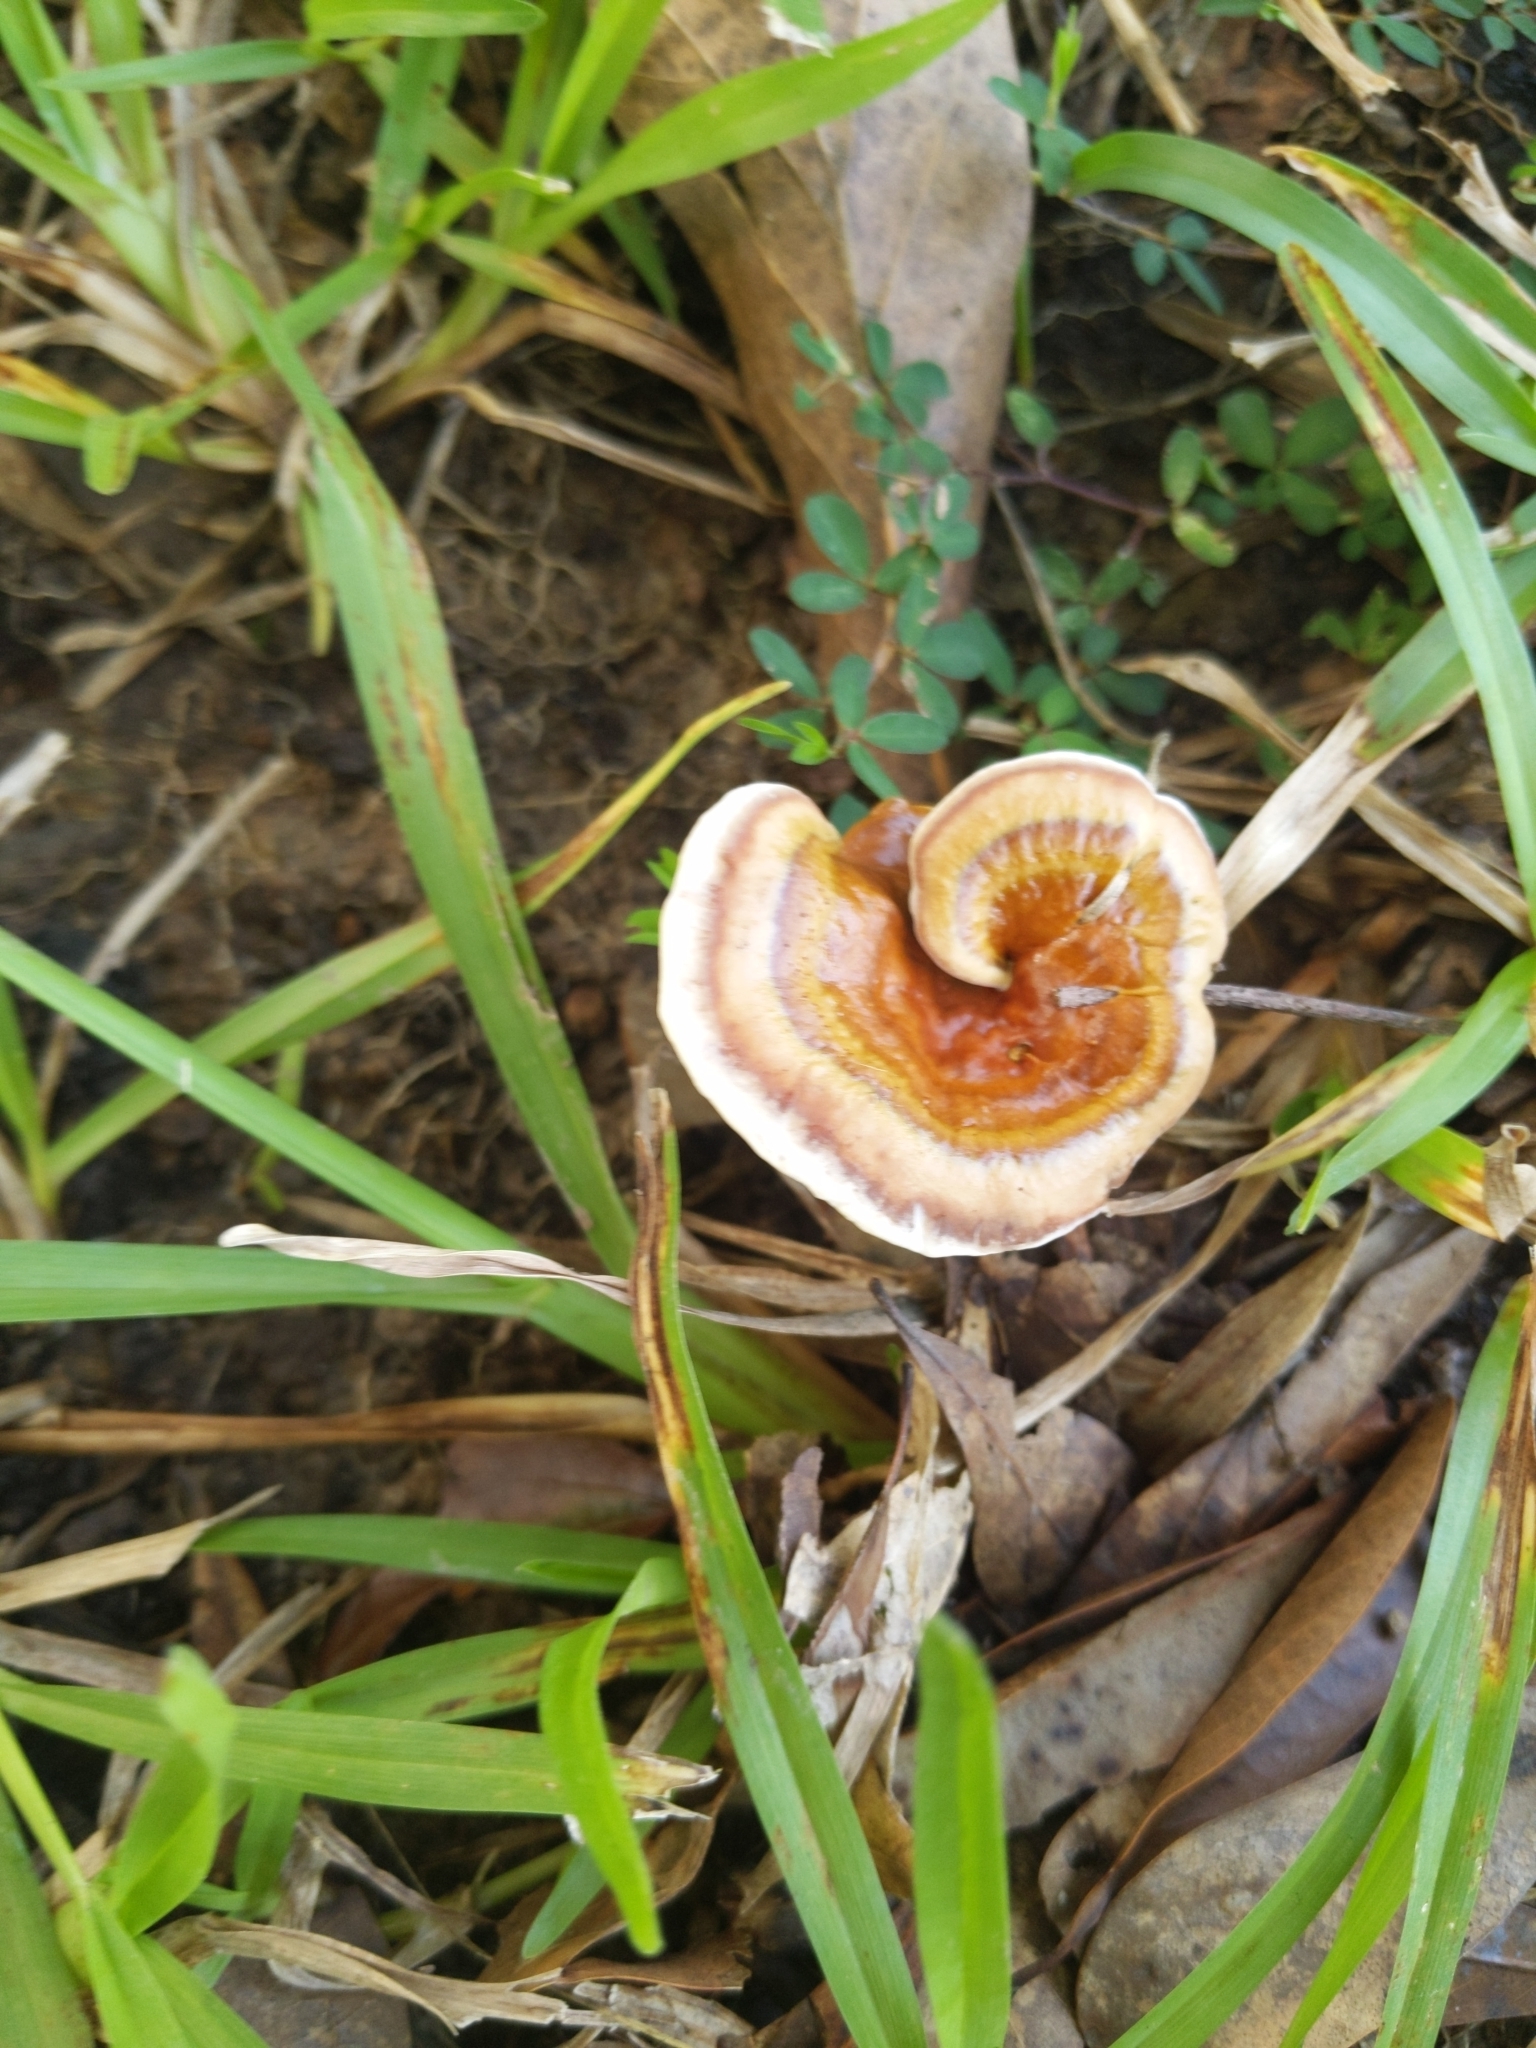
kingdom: Fungi
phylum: Basidiomycota
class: Agaricomycetes
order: Polyporales
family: Polyporaceae
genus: Ganoderma
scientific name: Ganoderma curtisii
